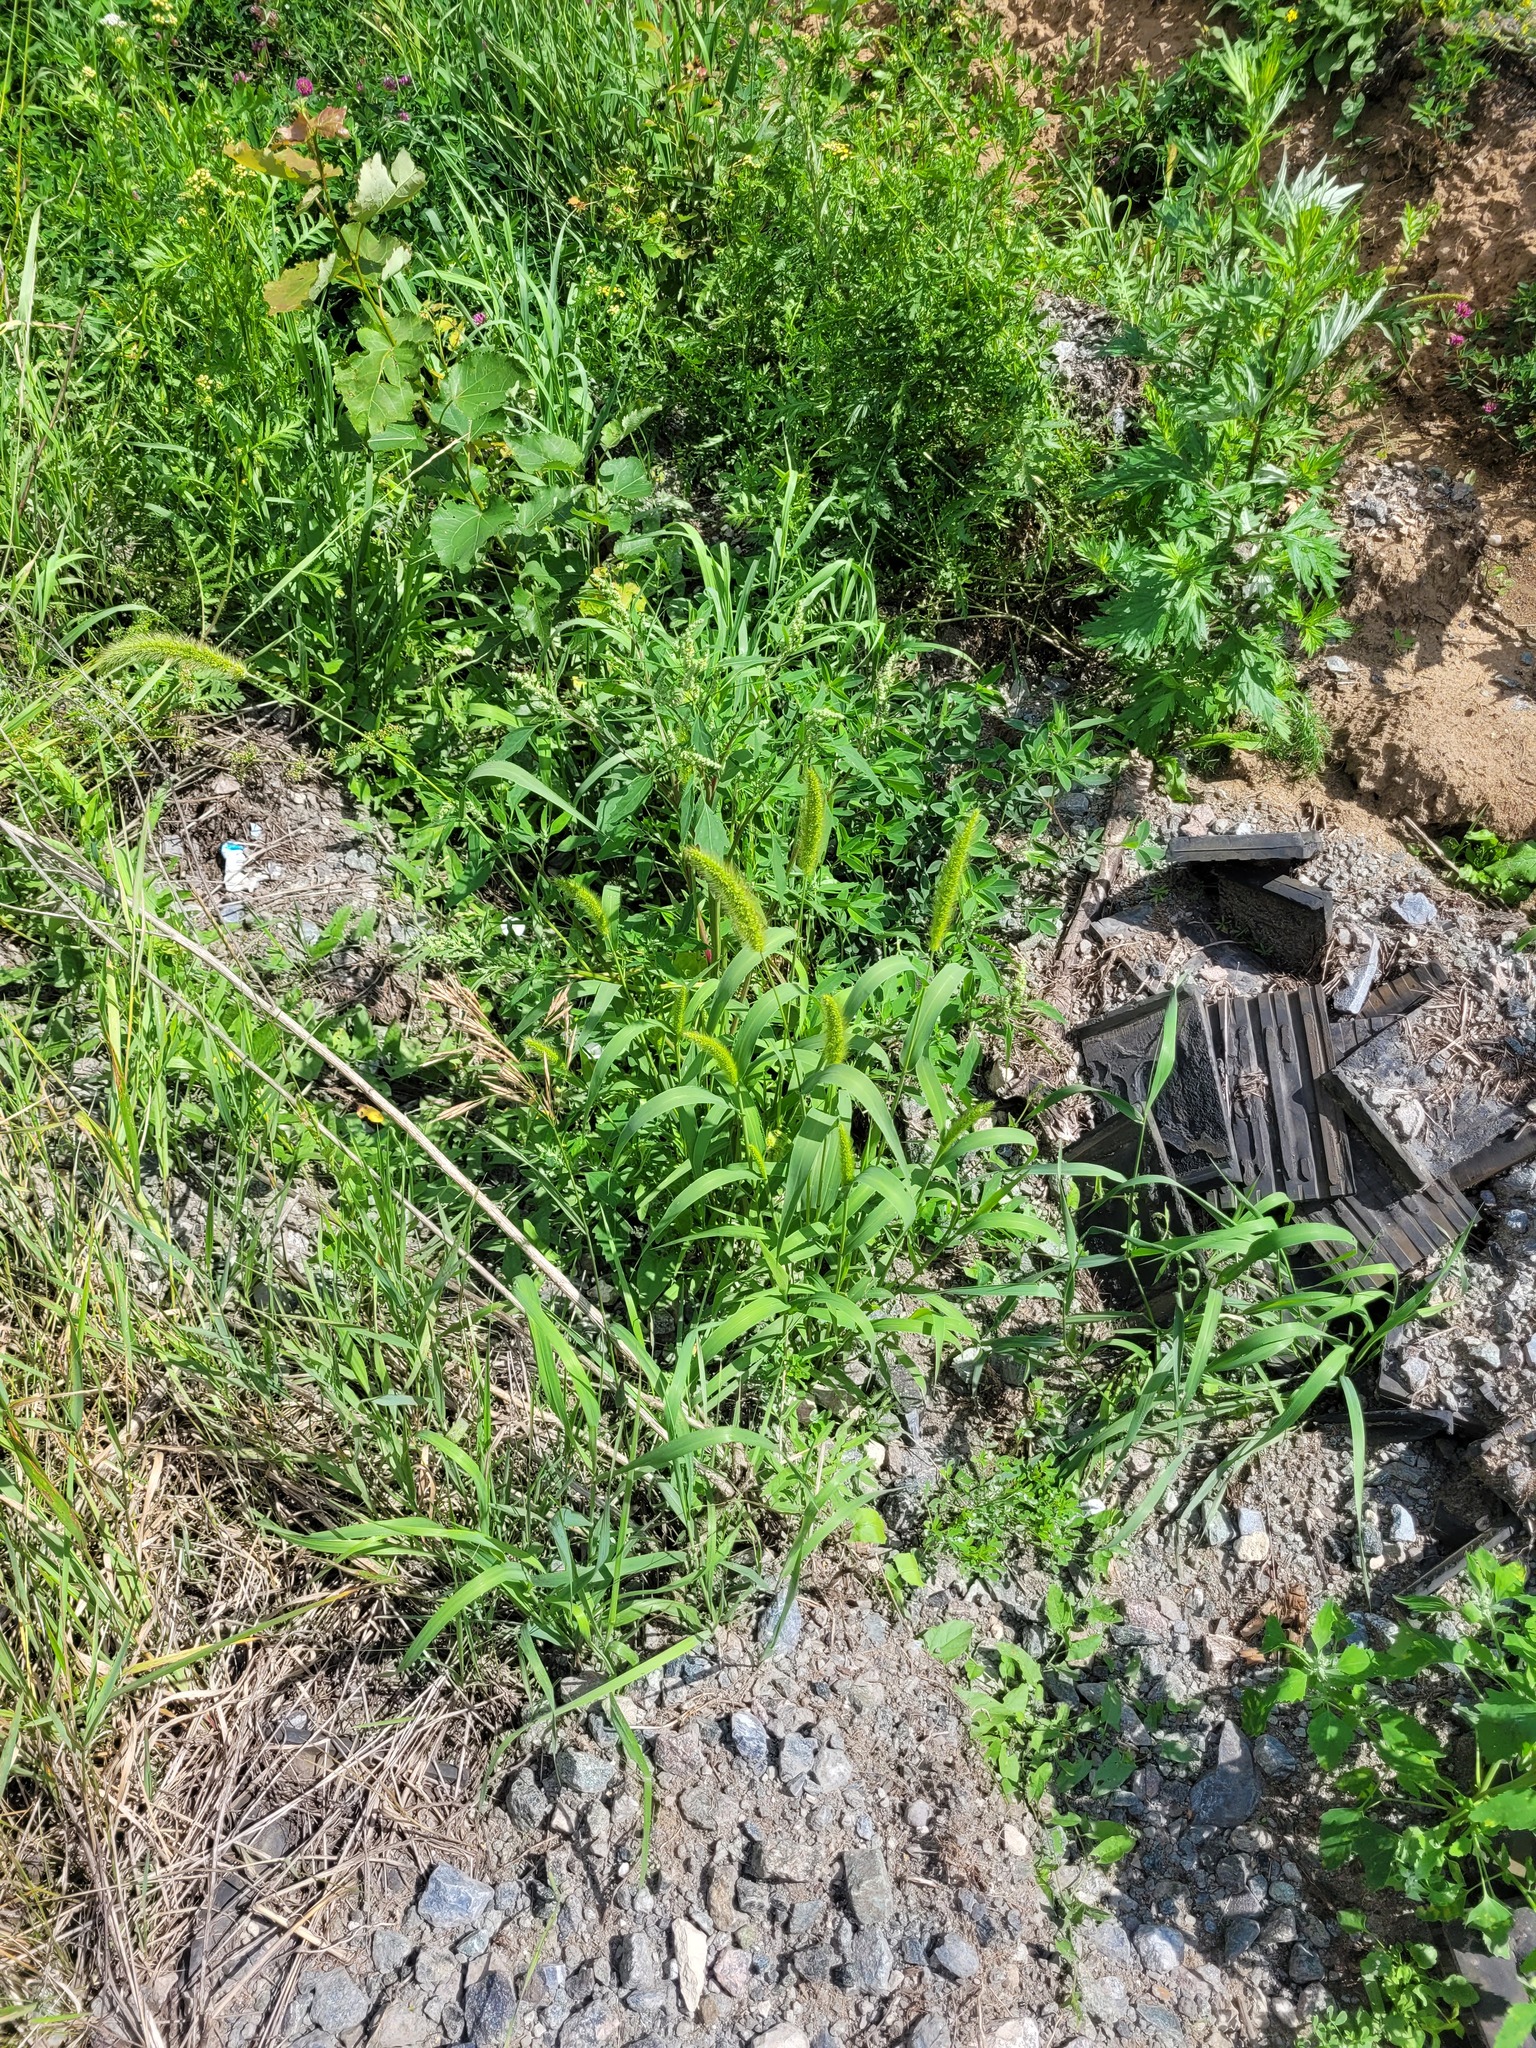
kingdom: Plantae
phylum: Tracheophyta
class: Liliopsida
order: Poales
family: Poaceae
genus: Setaria
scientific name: Setaria viridis
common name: Green bristlegrass
